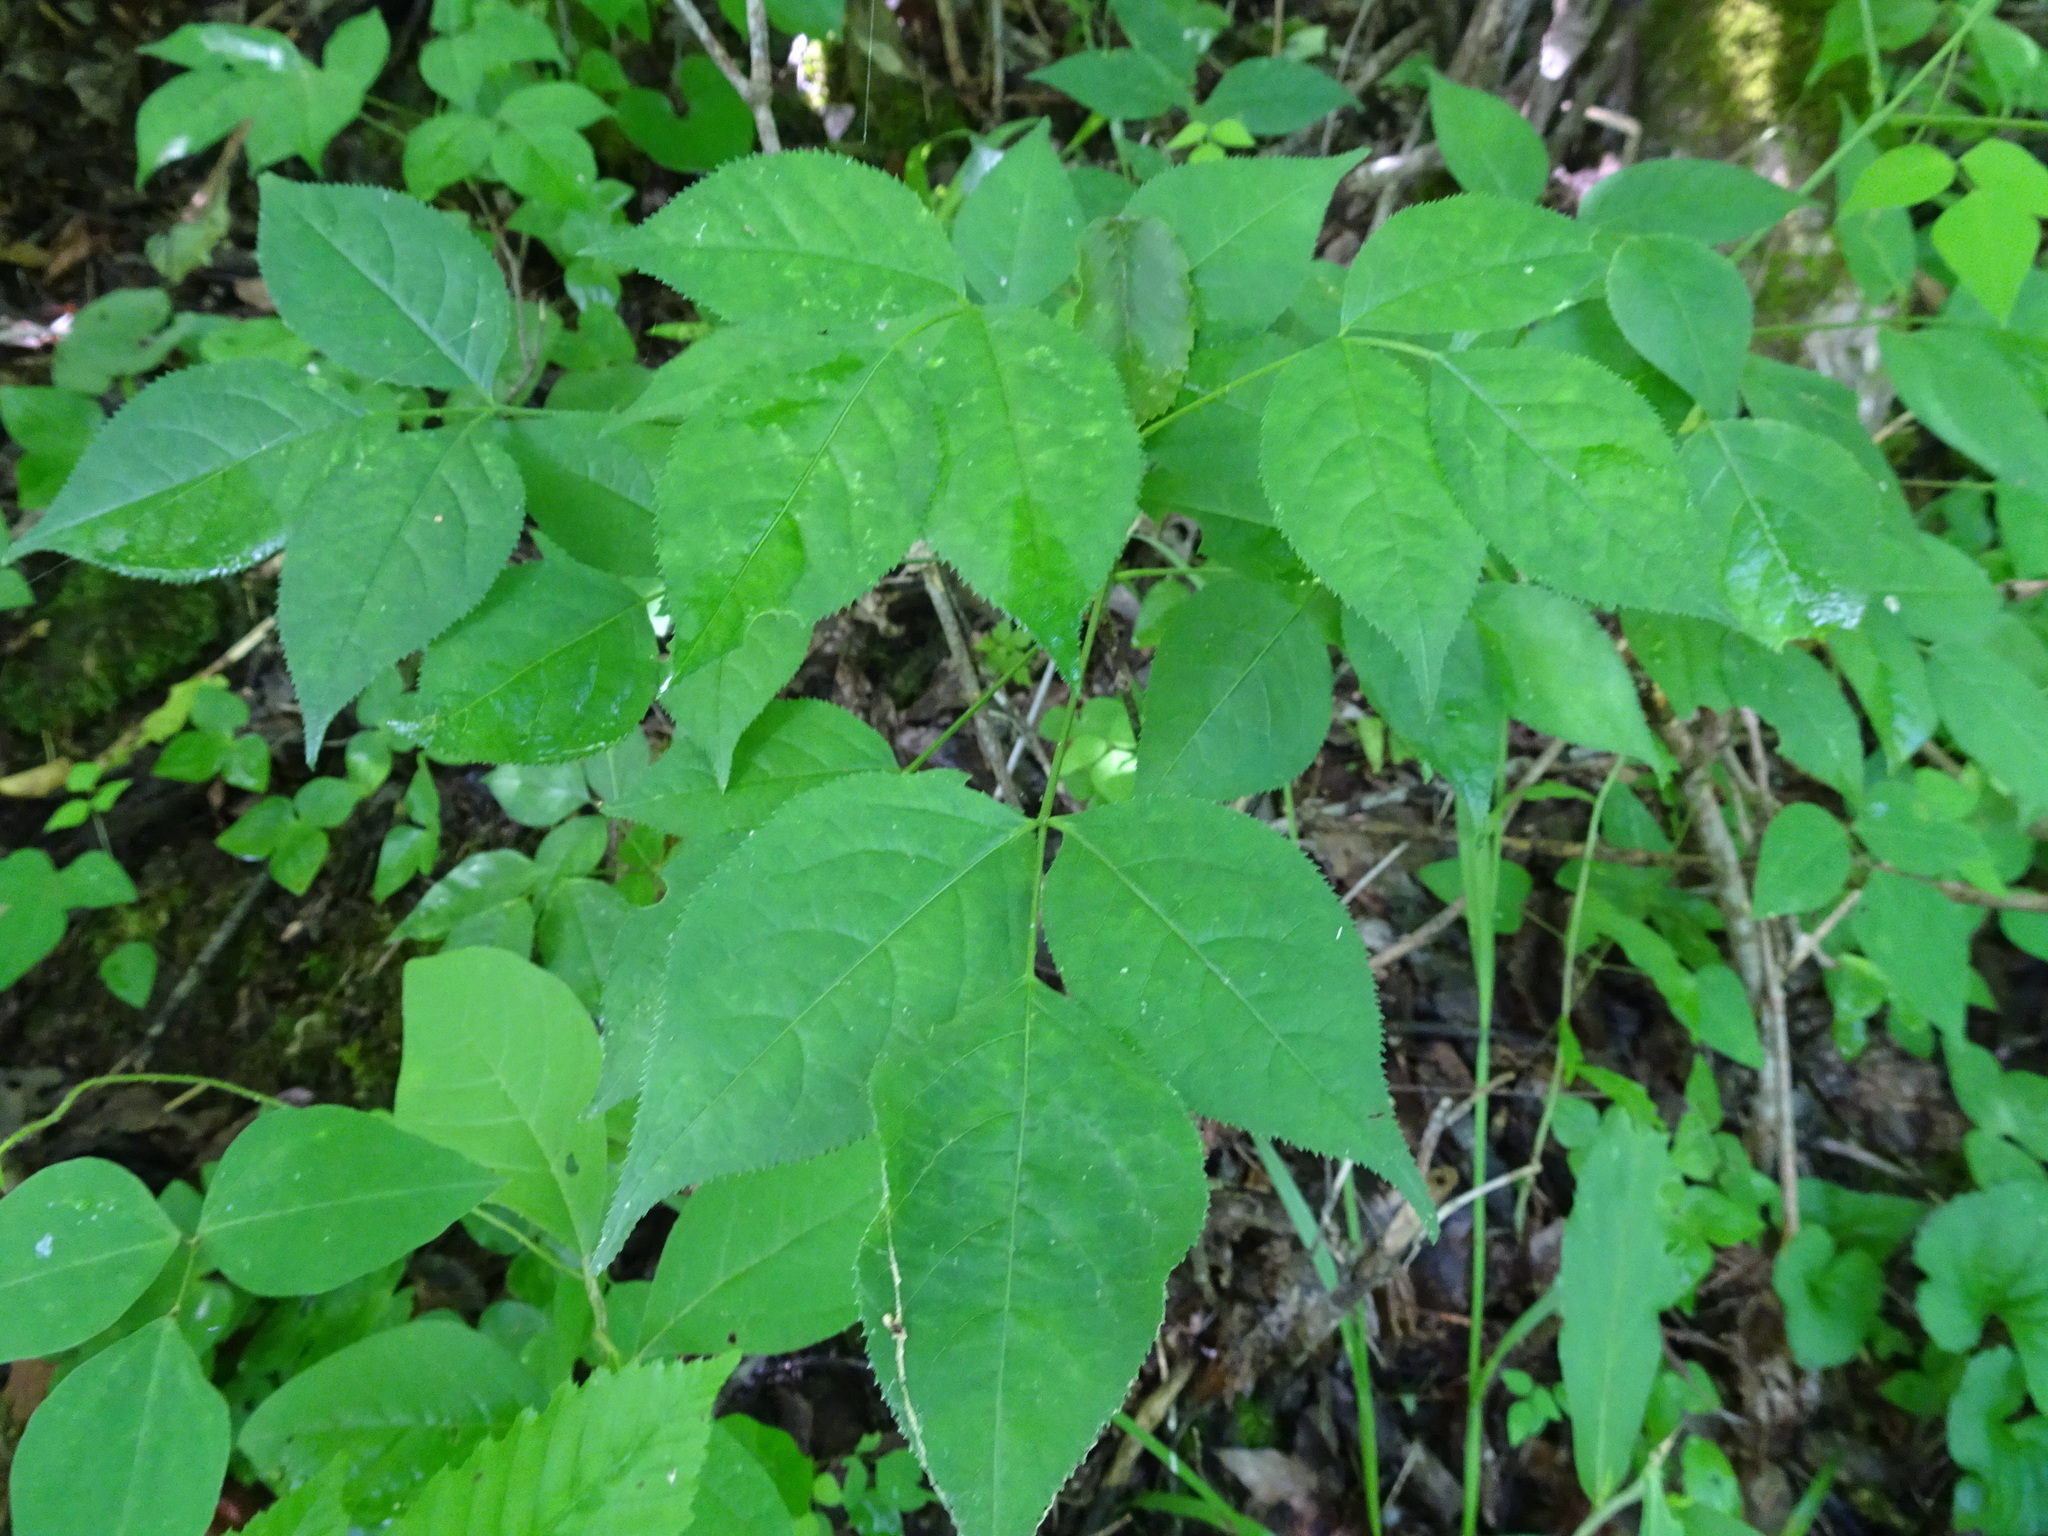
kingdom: Plantae
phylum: Tracheophyta
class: Magnoliopsida
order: Crossosomatales
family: Staphyleaceae
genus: Staphylea
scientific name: Staphylea trifolia
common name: American bladdernut
